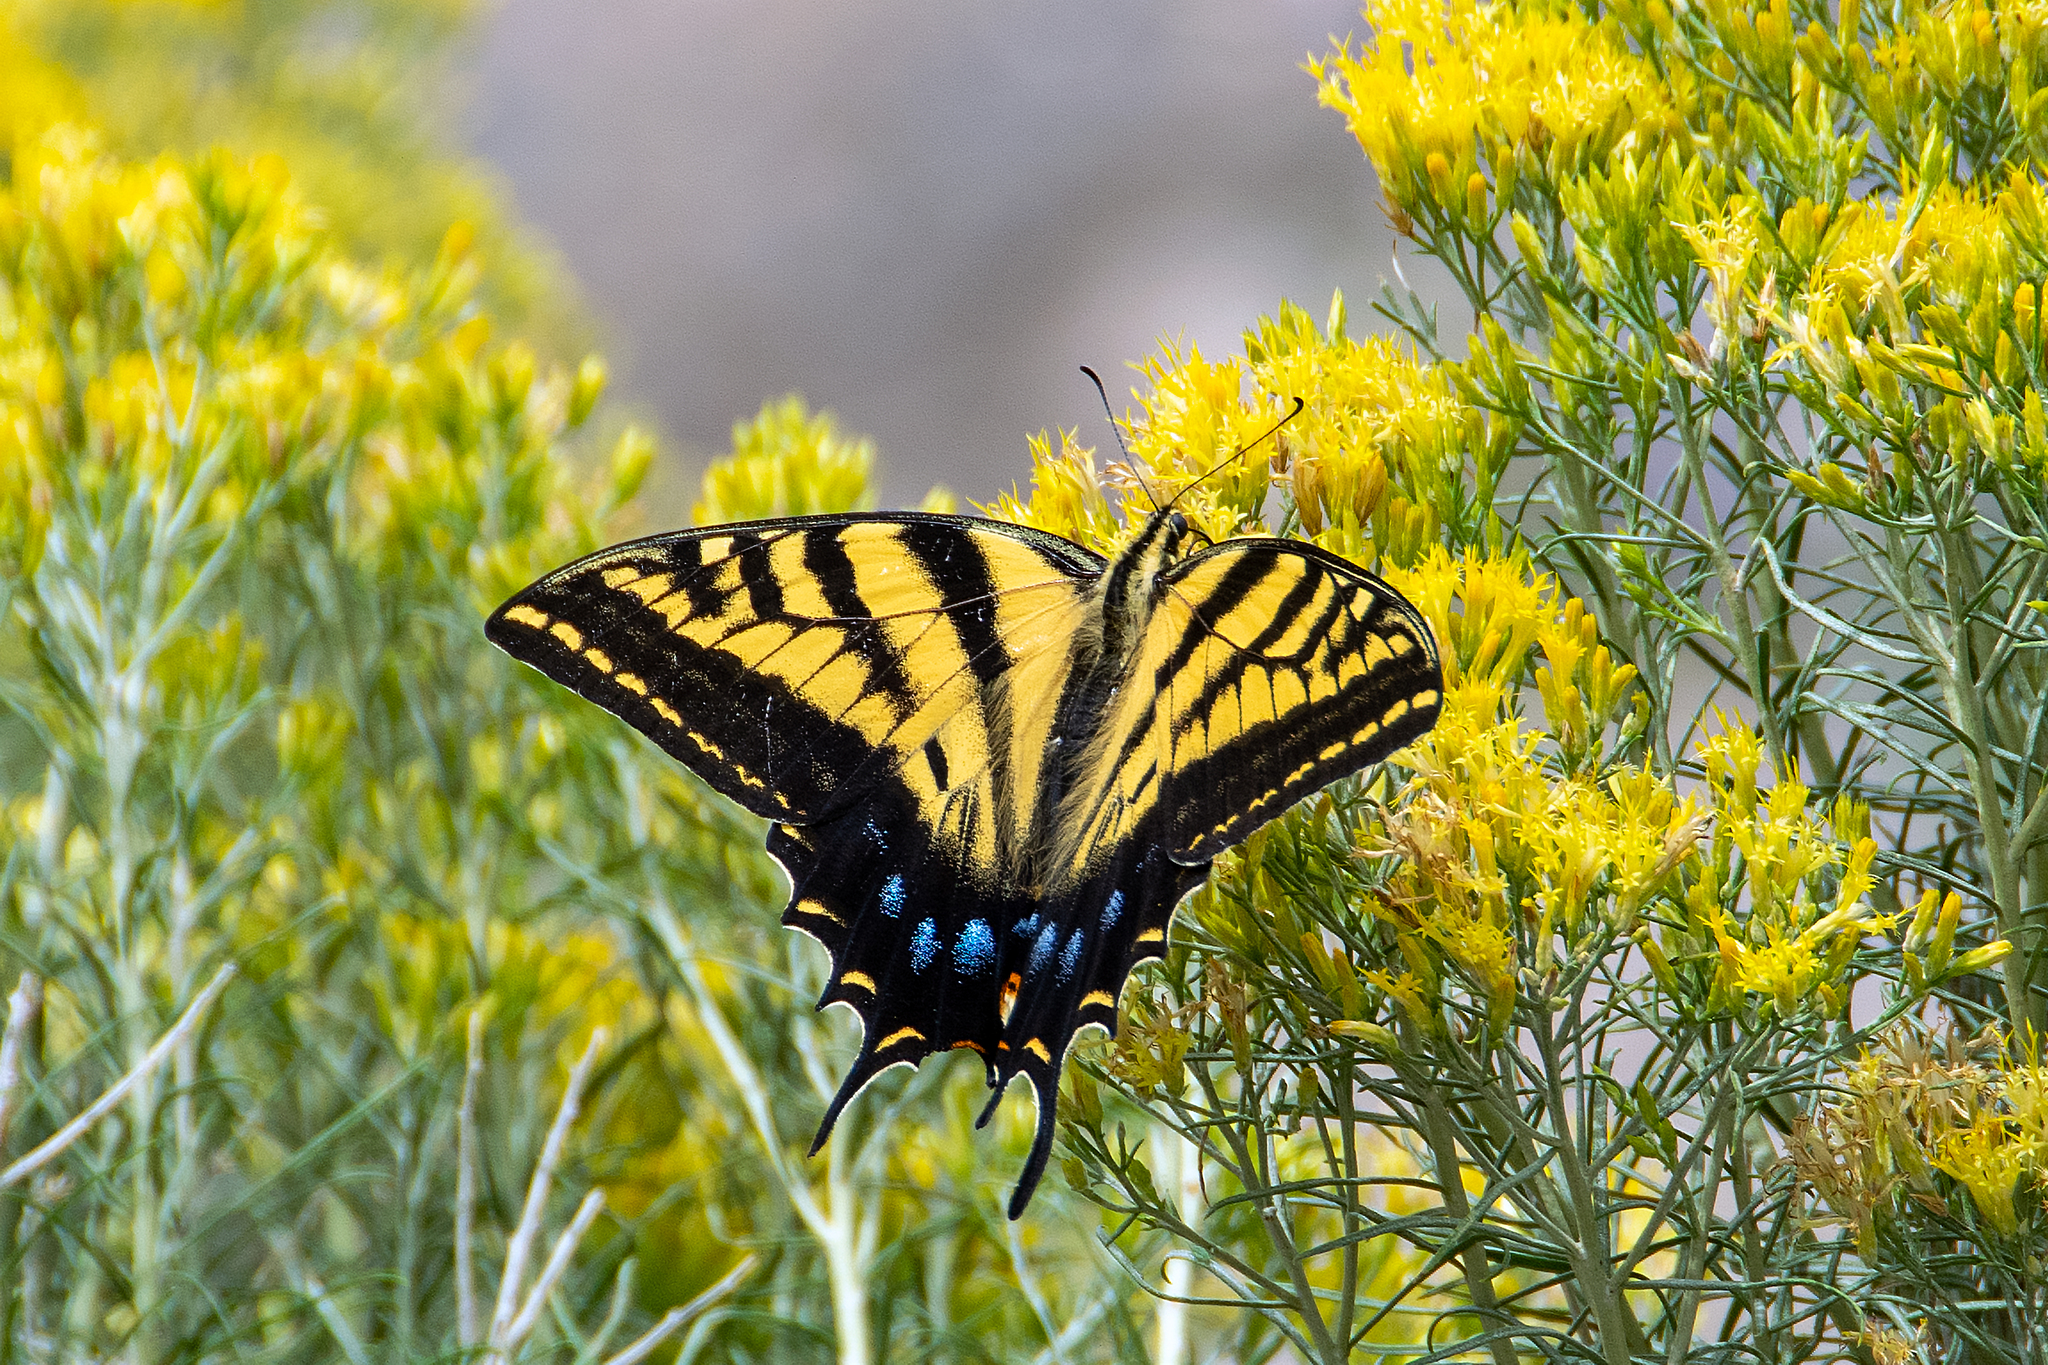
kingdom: Animalia
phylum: Arthropoda
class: Insecta
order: Lepidoptera
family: Papilionidae
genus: Papilio
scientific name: Papilio multicaudata
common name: Two-tailed tiger swallowtail
